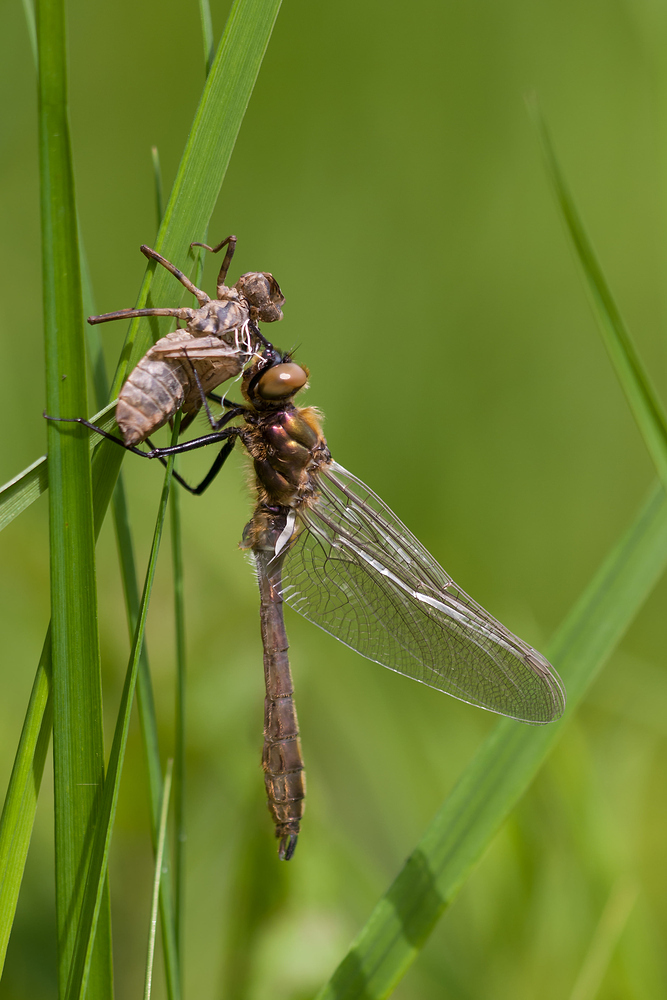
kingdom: Animalia
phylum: Arthropoda
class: Insecta
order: Odonata
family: Corduliidae
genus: Cordulia
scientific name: Cordulia aenea
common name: Downy emerald
